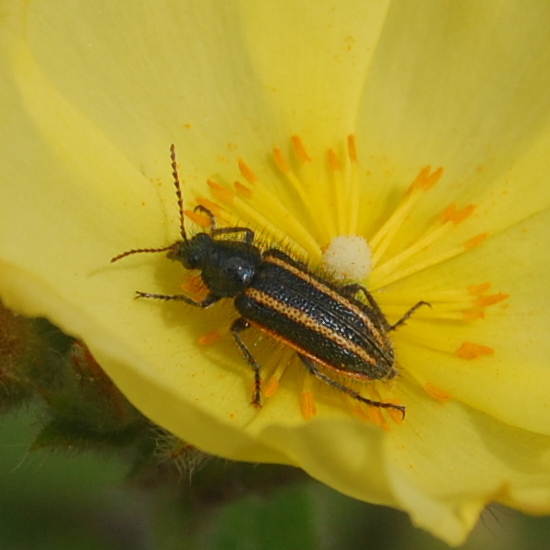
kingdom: Animalia
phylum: Arthropoda
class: Insecta
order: Coleoptera
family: Melyridae
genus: Astylus
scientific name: Astylus
